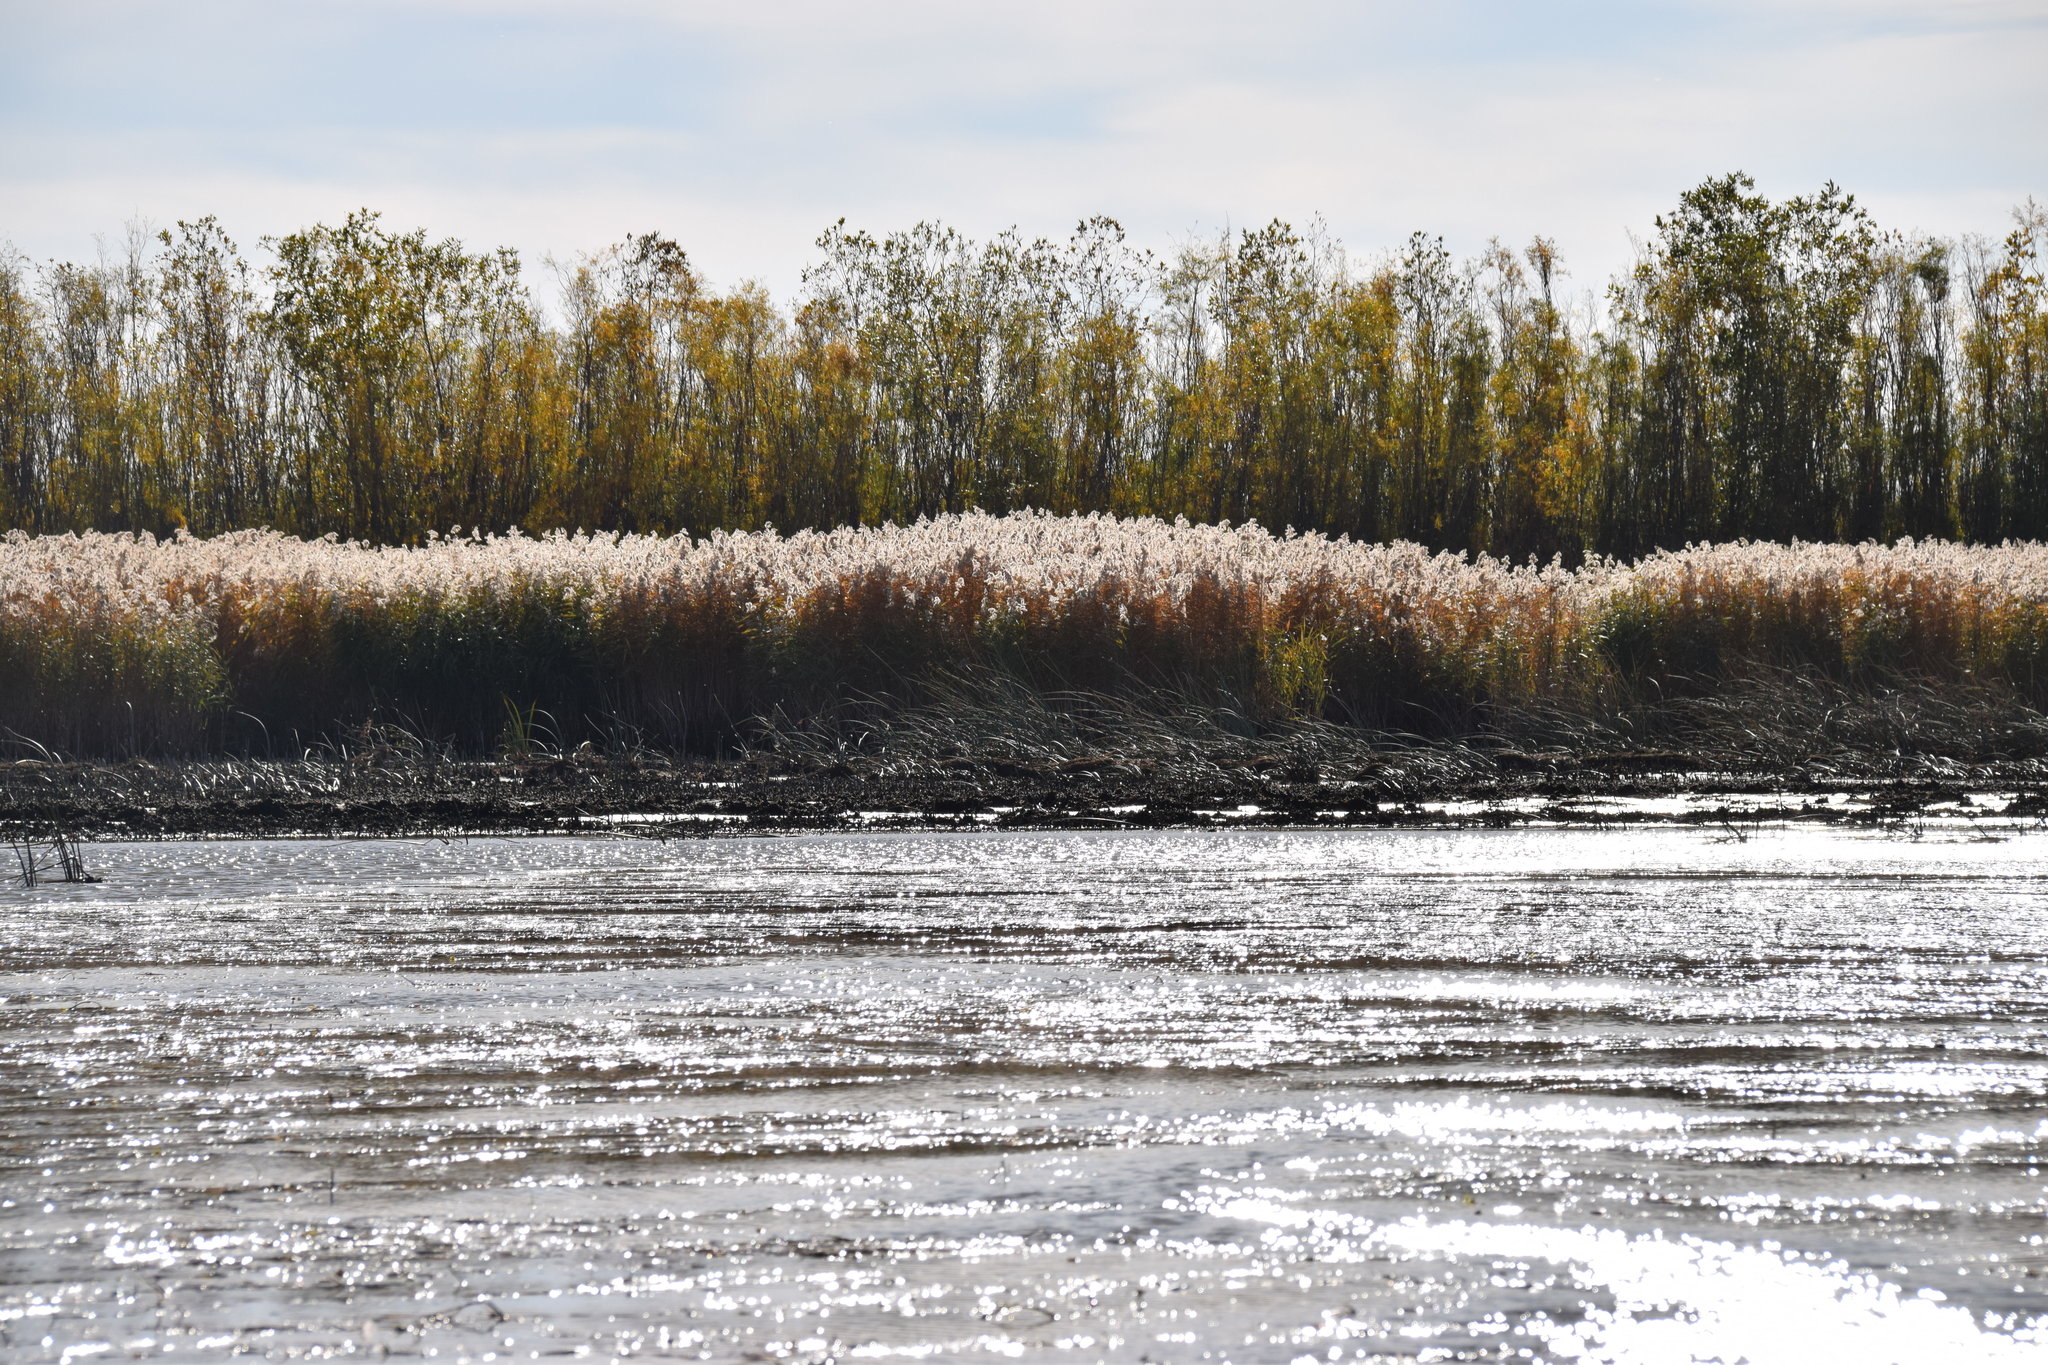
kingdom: Plantae
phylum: Tracheophyta
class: Liliopsida
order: Poales
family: Poaceae
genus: Phragmites
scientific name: Phragmites australis
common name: Common reed
